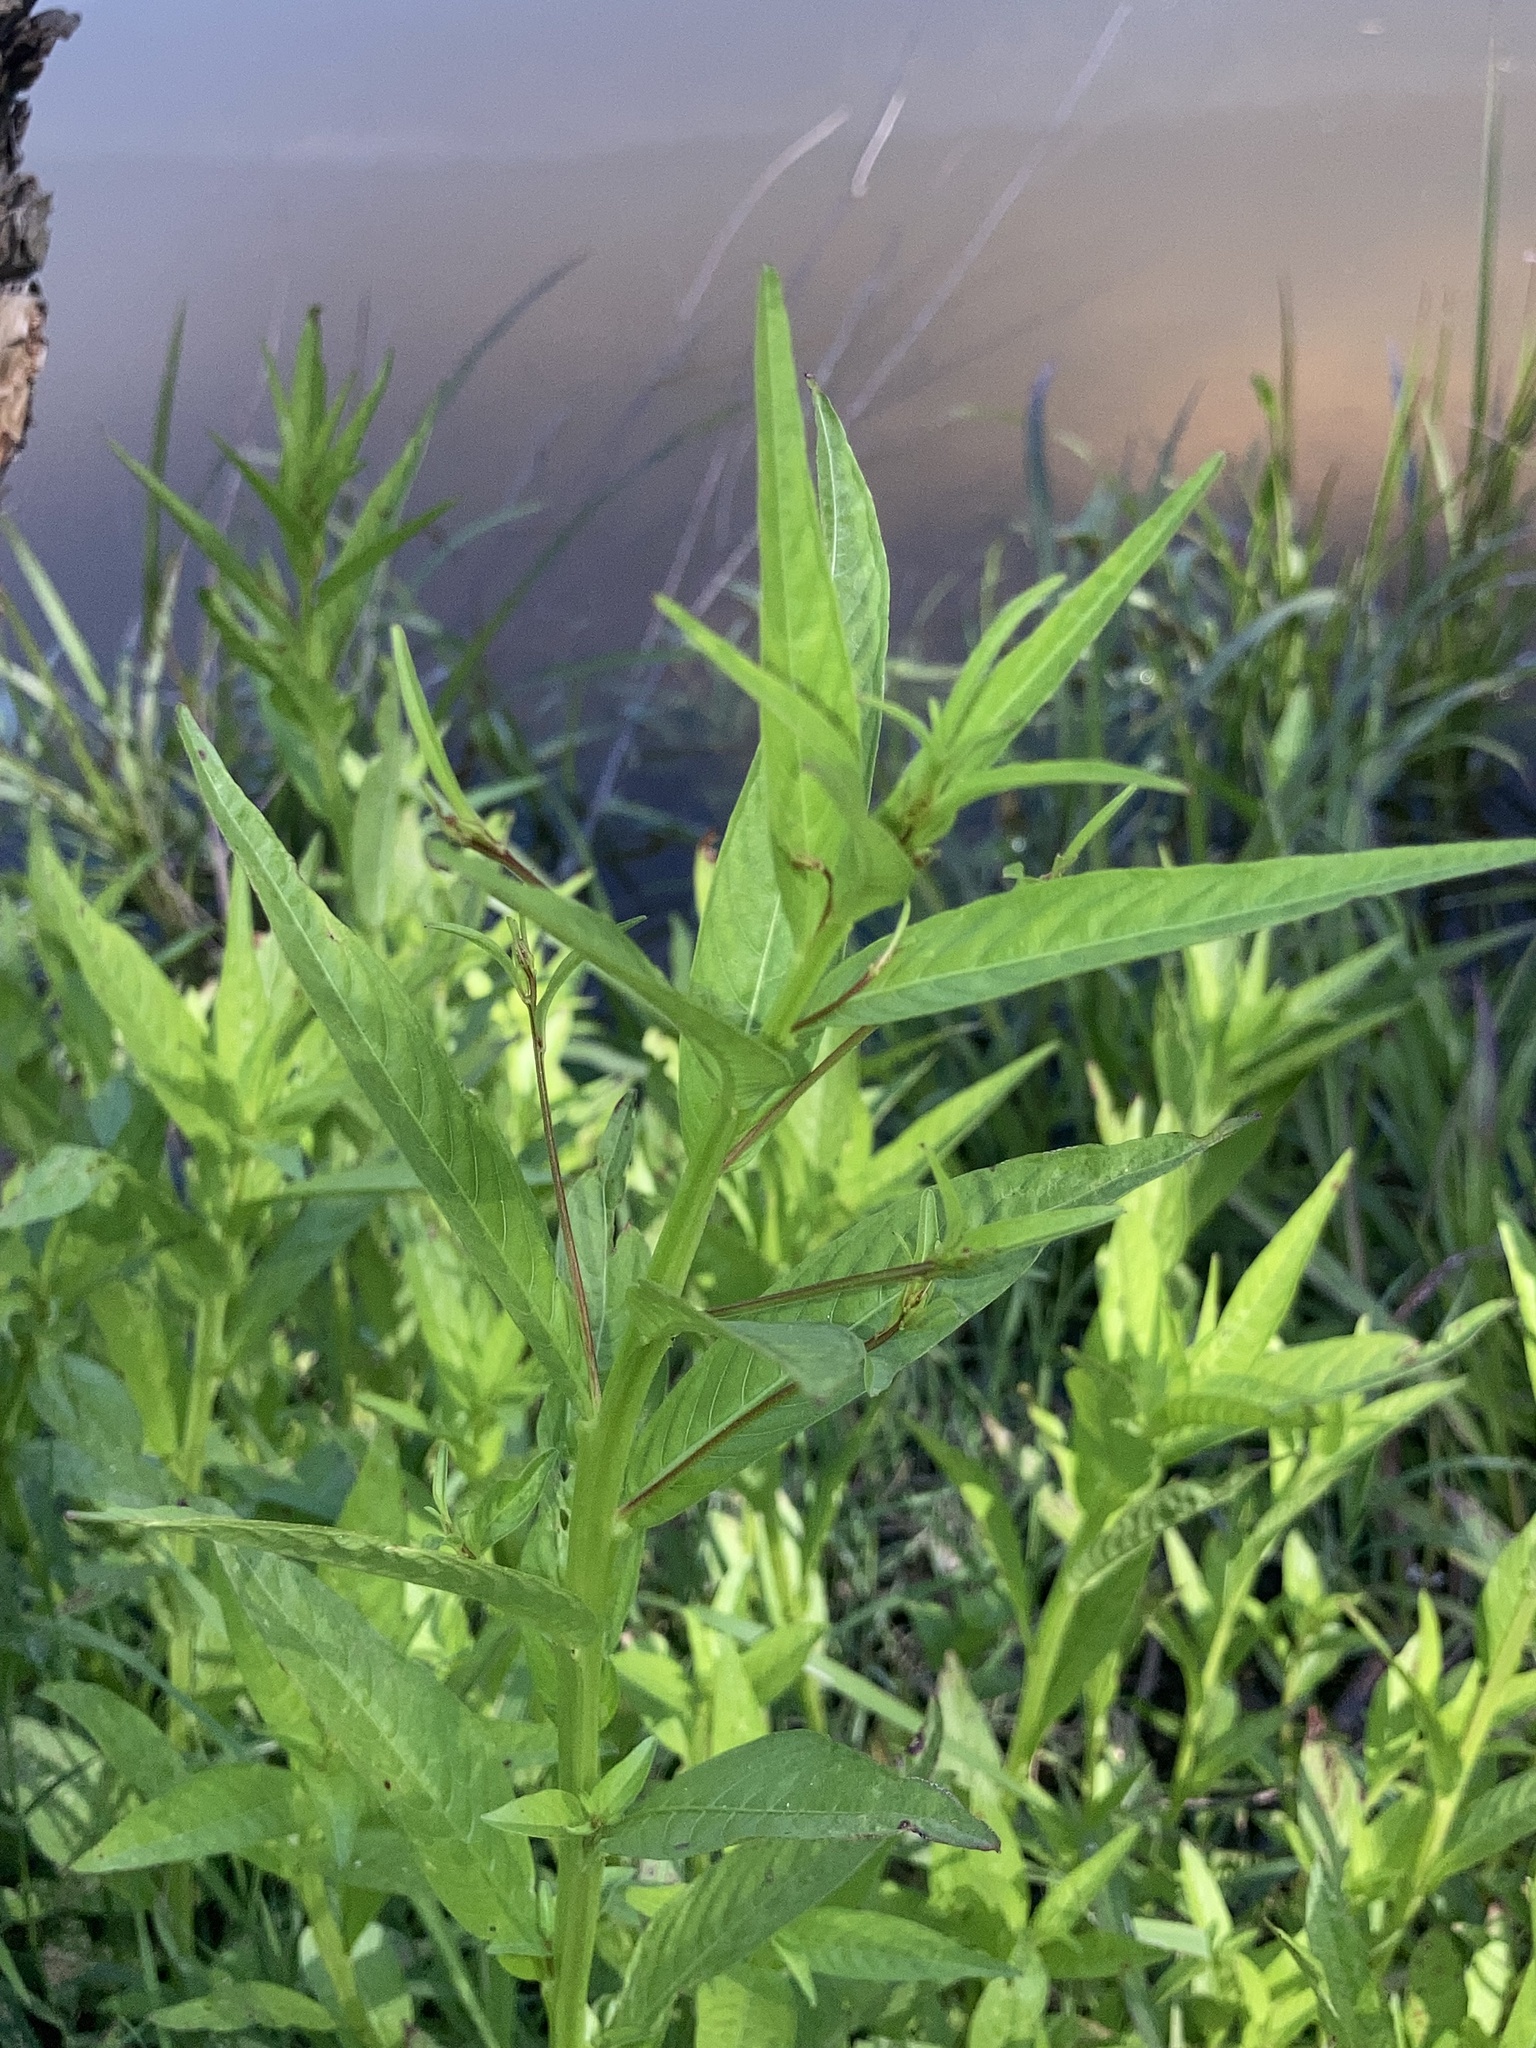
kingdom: Plantae
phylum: Tracheophyta
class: Magnoliopsida
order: Myrtales
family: Onagraceae
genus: Ludwigia
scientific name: Ludwigia decurrens
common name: Winged water-primrose
